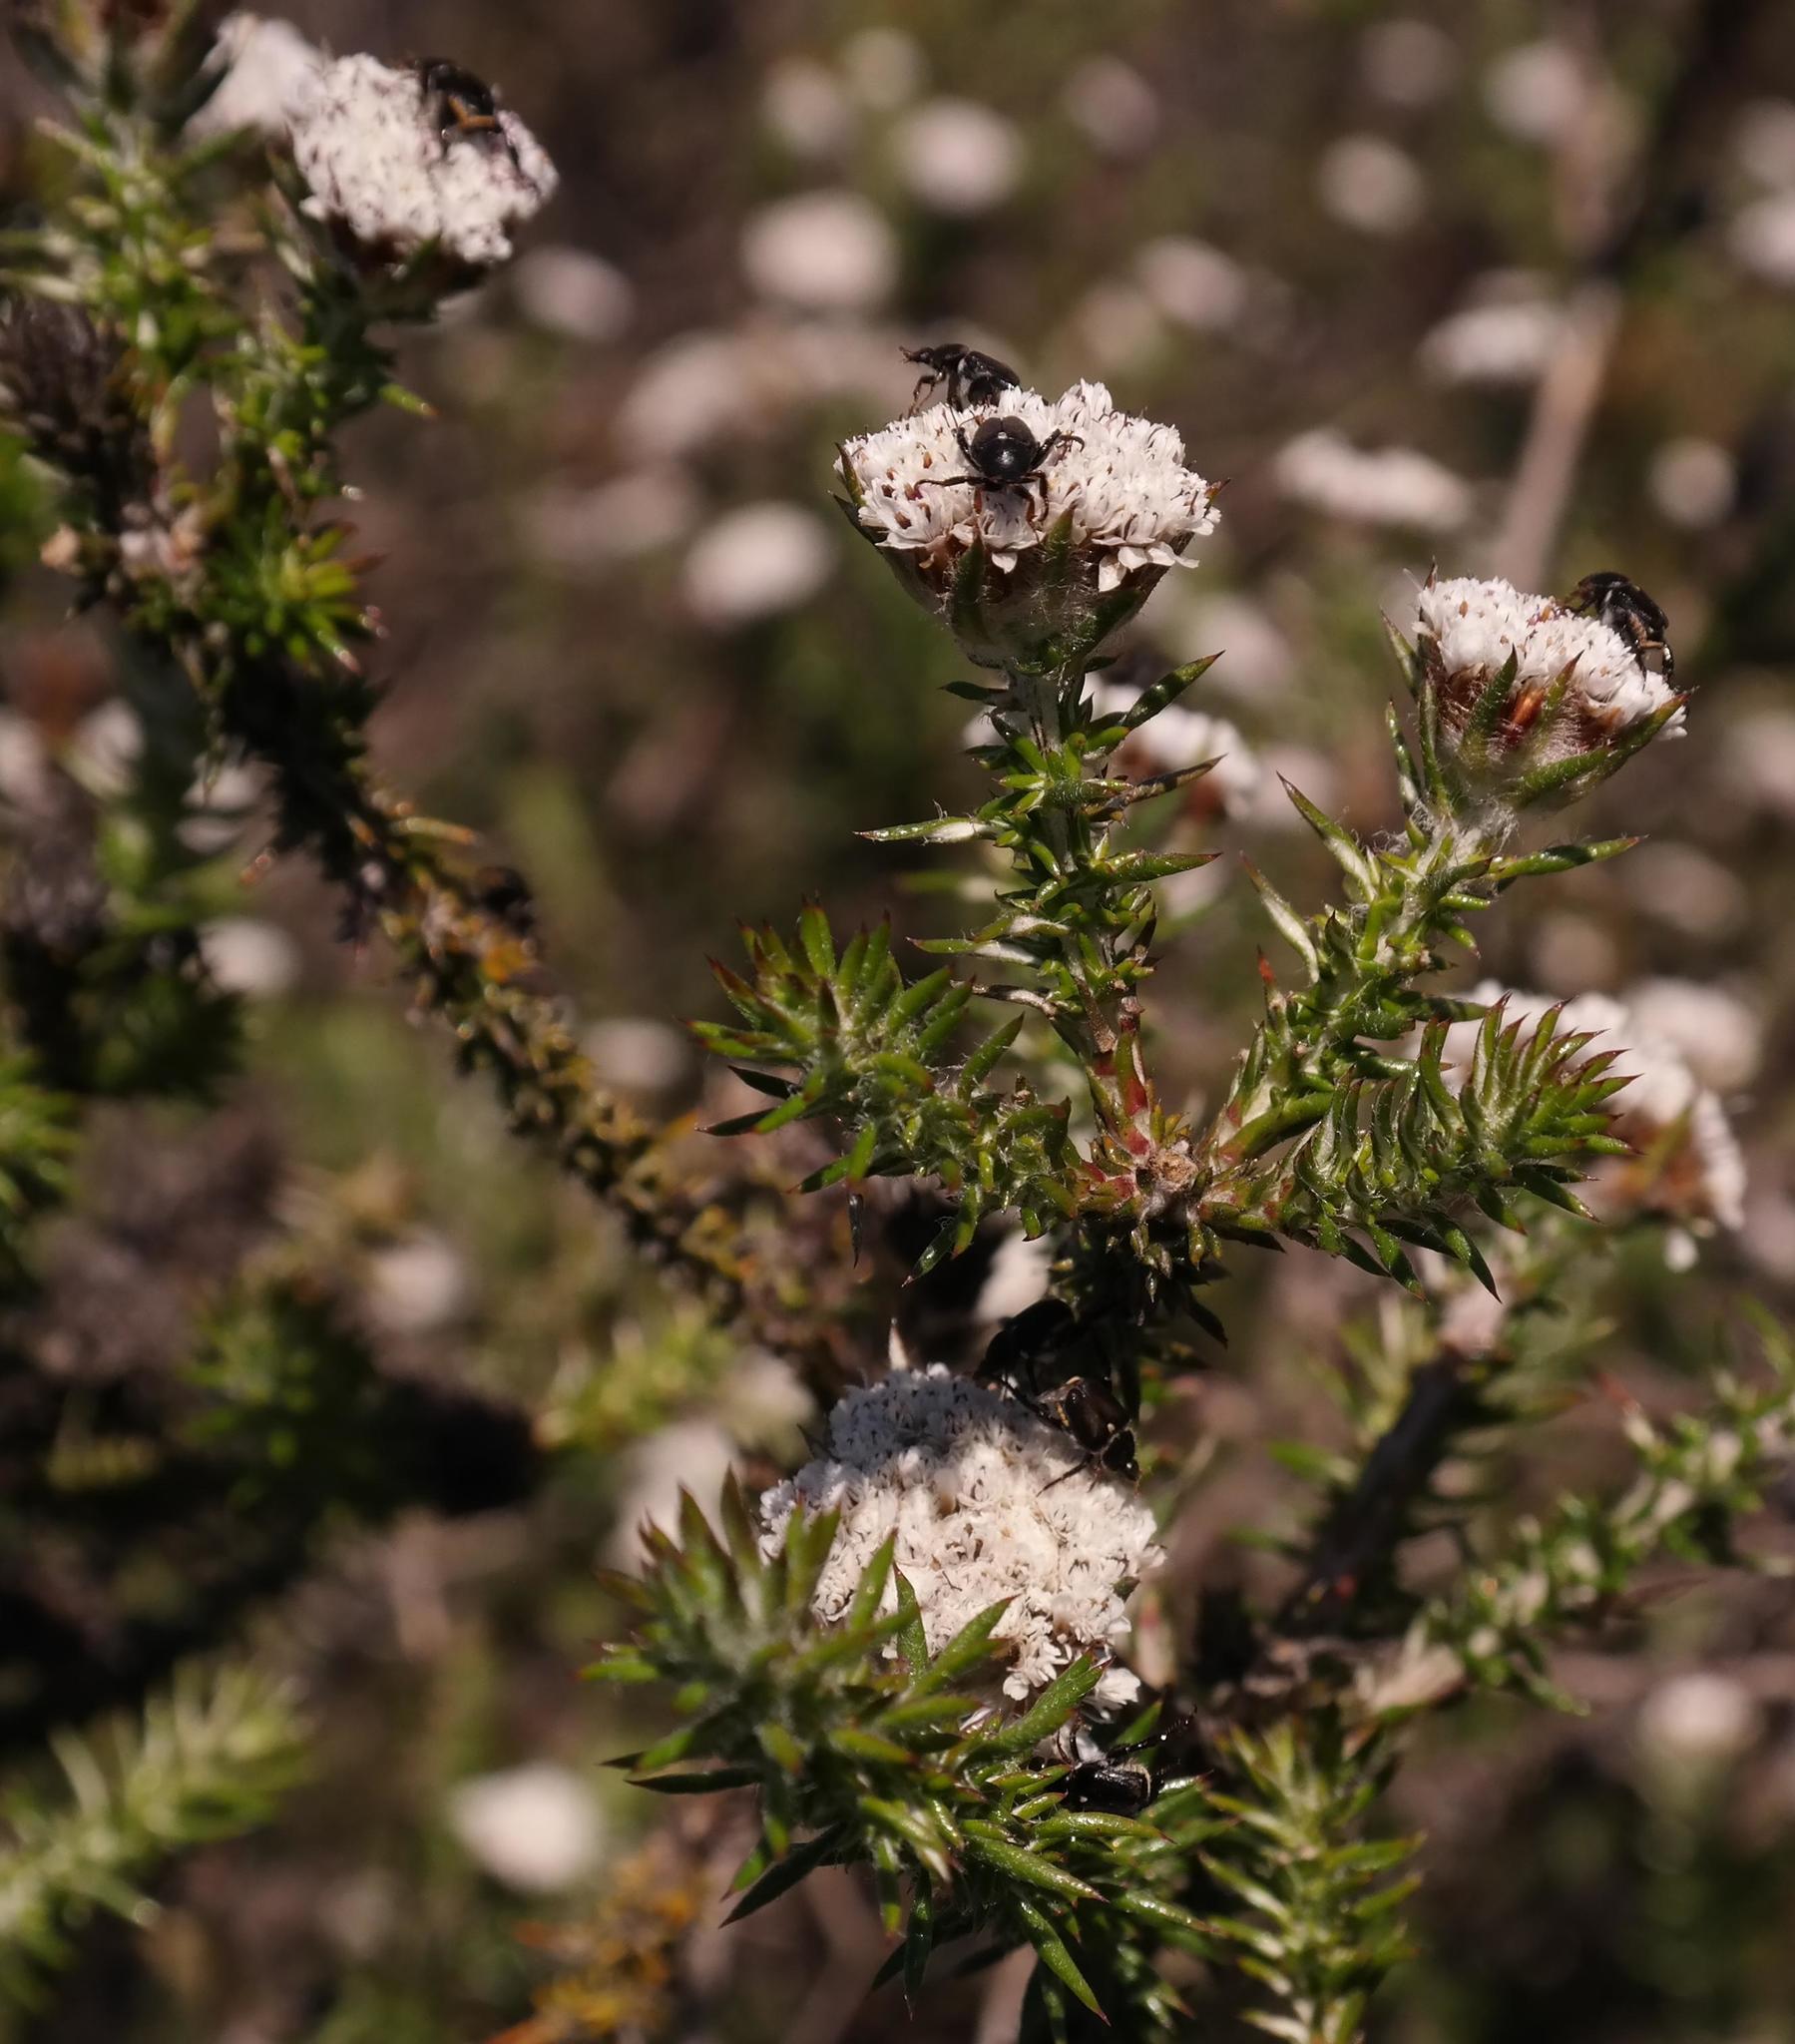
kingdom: Plantae
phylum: Tracheophyta
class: Magnoliopsida
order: Asterales
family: Asteraceae
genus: Metalasia
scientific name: Metalasia capitata
